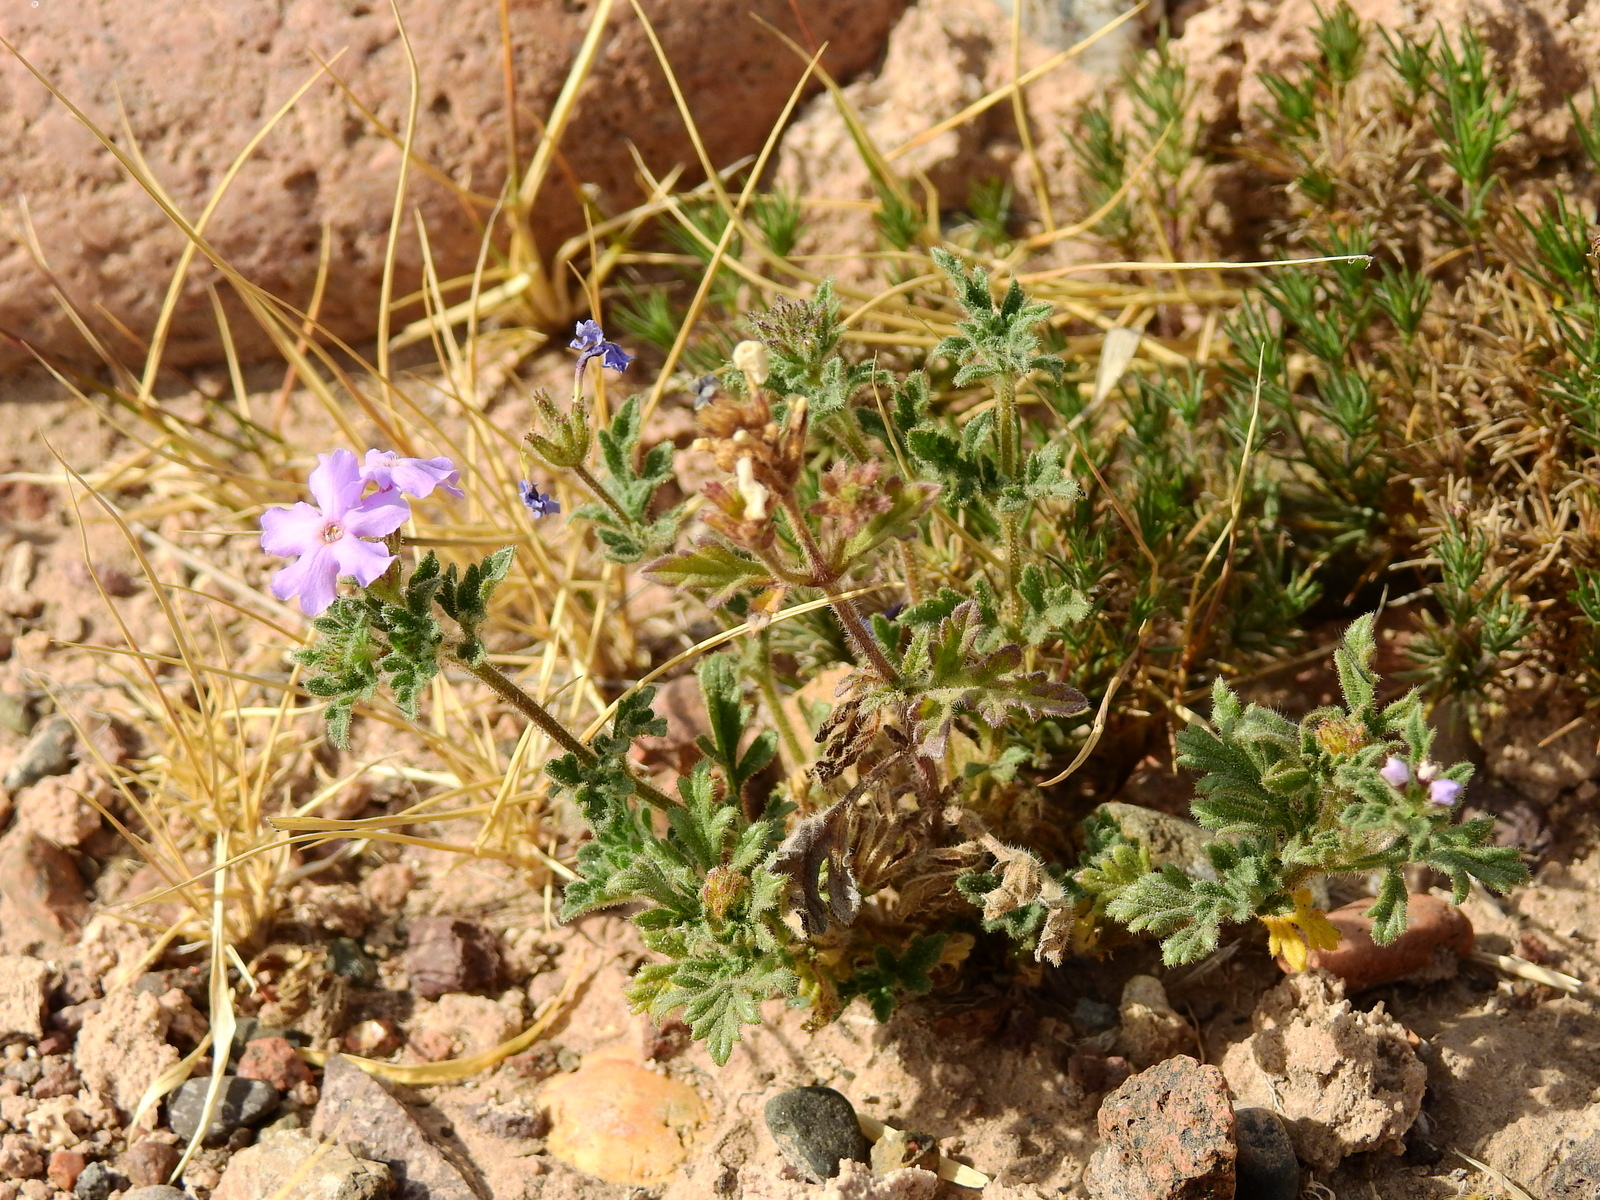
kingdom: Plantae
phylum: Tracheophyta
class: Magnoliopsida
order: Lamiales
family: Verbenaceae
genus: Verbena
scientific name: Verbena mendocina
